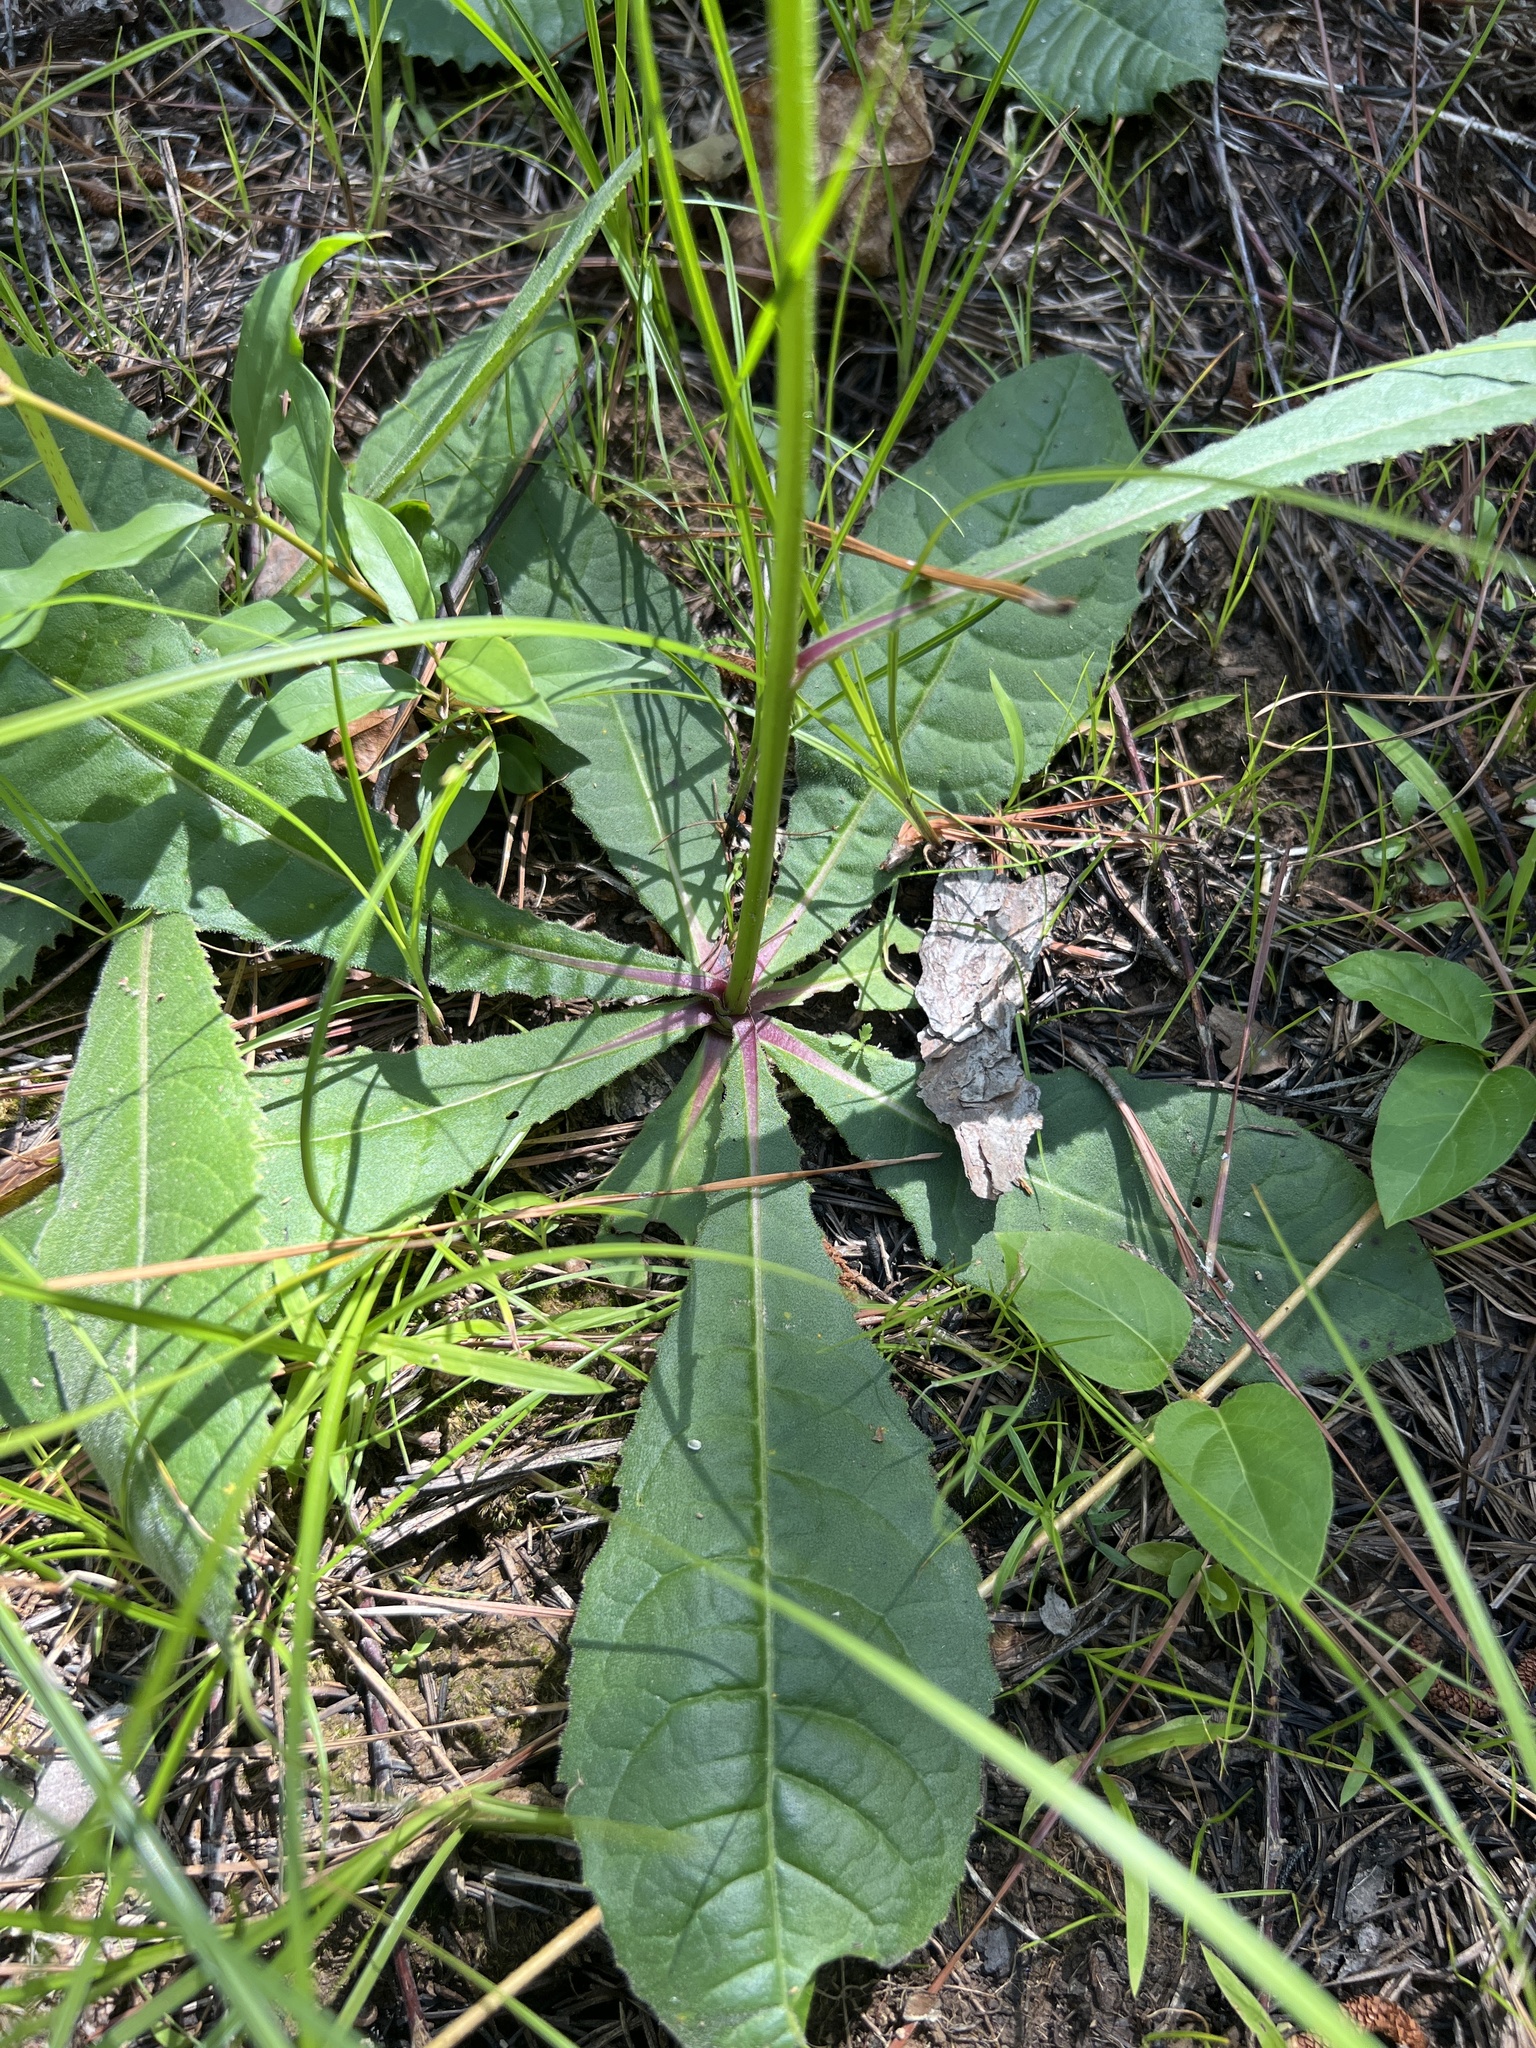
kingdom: Plantae
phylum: Tracheophyta
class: Magnoliopsida
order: Asterales
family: Asteraceae
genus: Vernonia
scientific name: Vernonia acaulis
